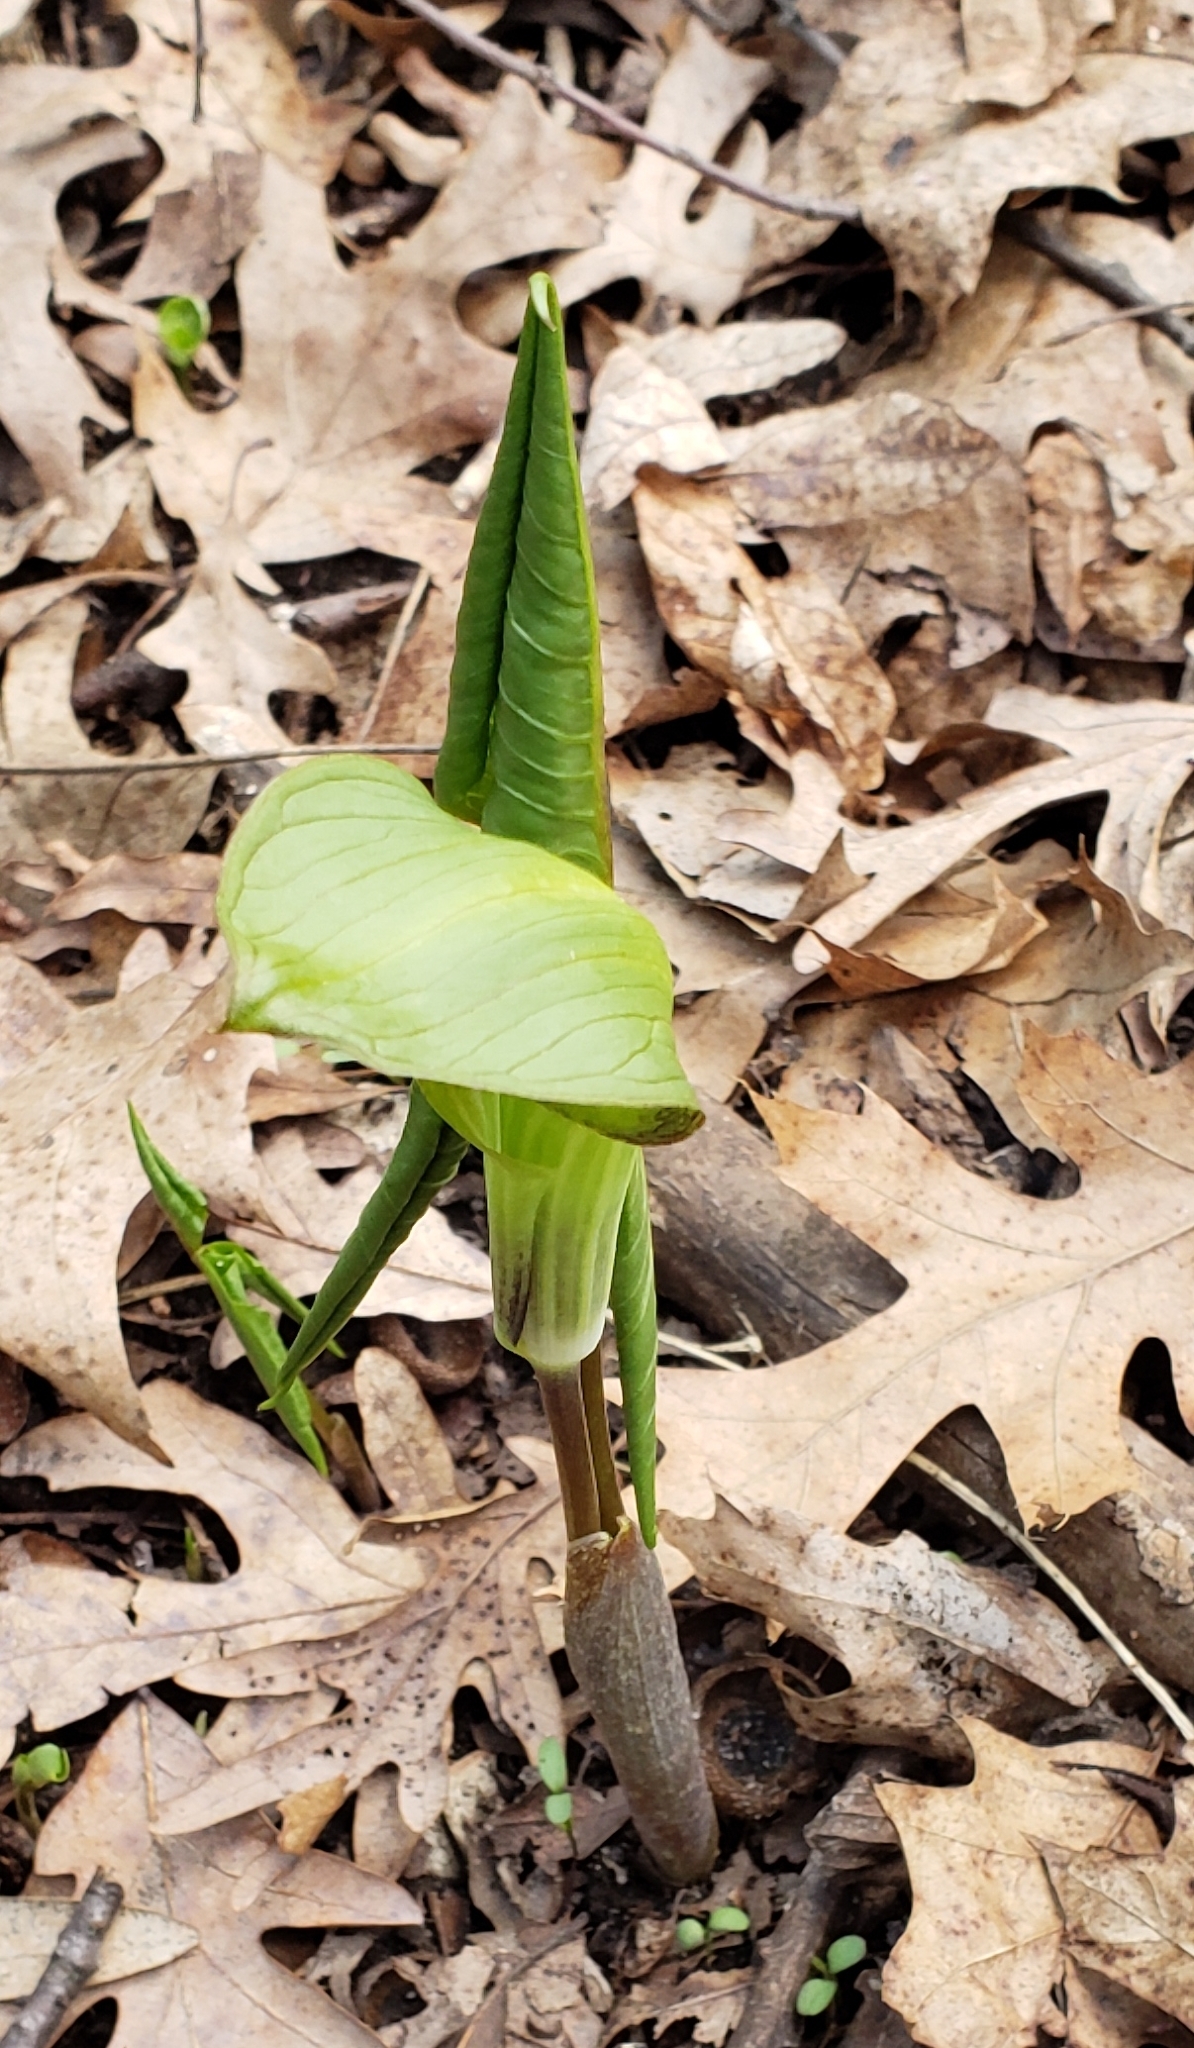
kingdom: Plantae
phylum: Tracheophyta
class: Liliopsida
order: Alismatales
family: Araceae
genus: Arisaema
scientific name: Arisaema triphyllum
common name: Jack-in-the-pulpit
